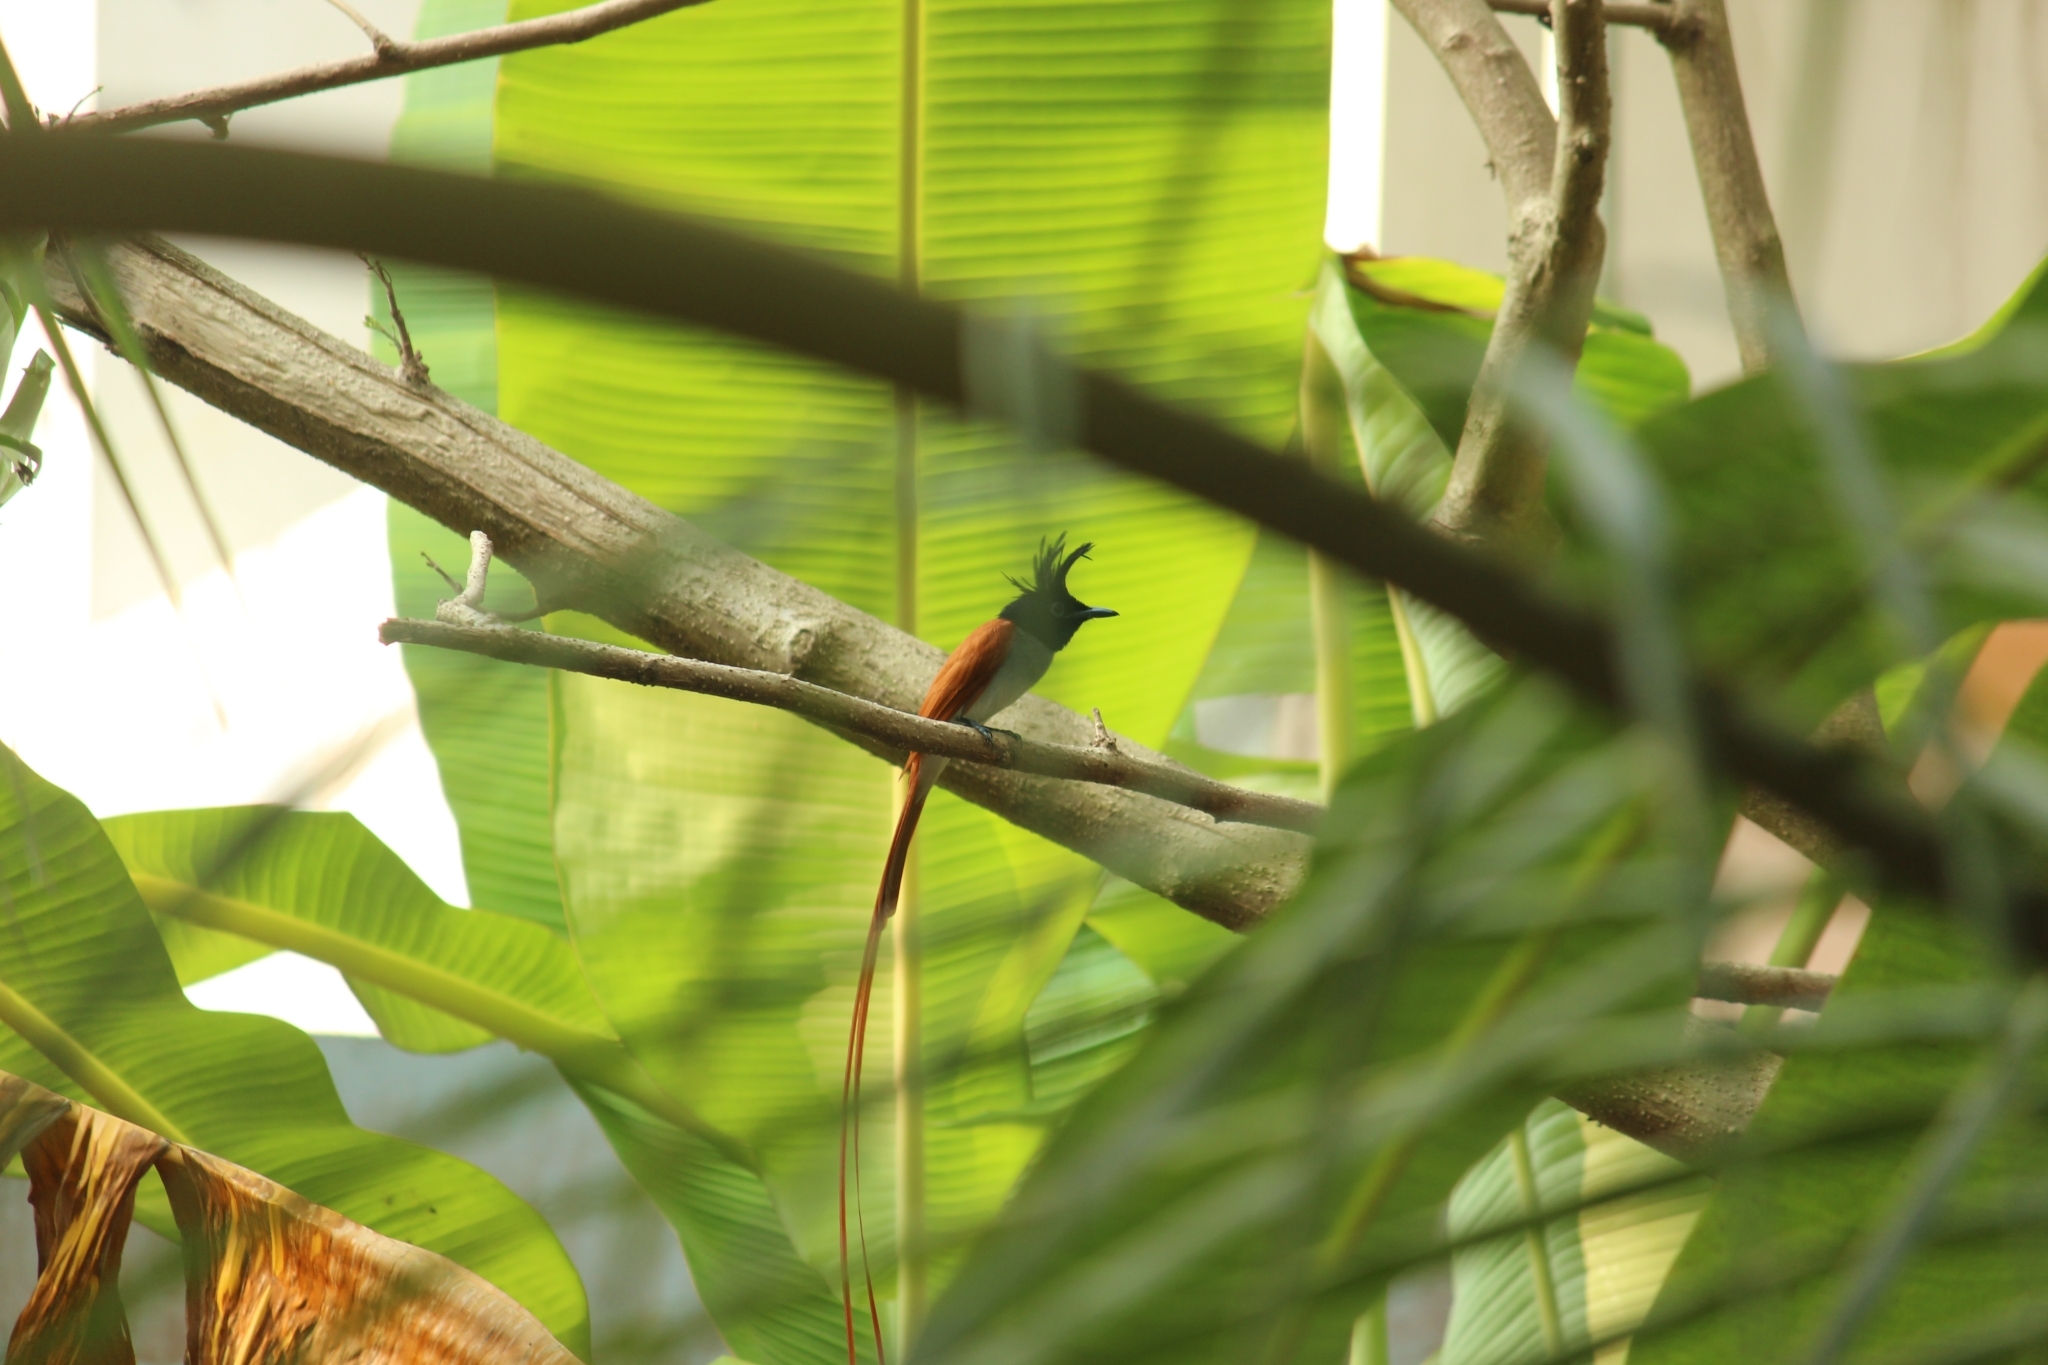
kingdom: Animalia
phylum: Chordata
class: Aves
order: Passeriformes
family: Monarchidae
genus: Terpsiphone
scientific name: Terpsiphone paradisi
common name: Indian paradise flycatcher
